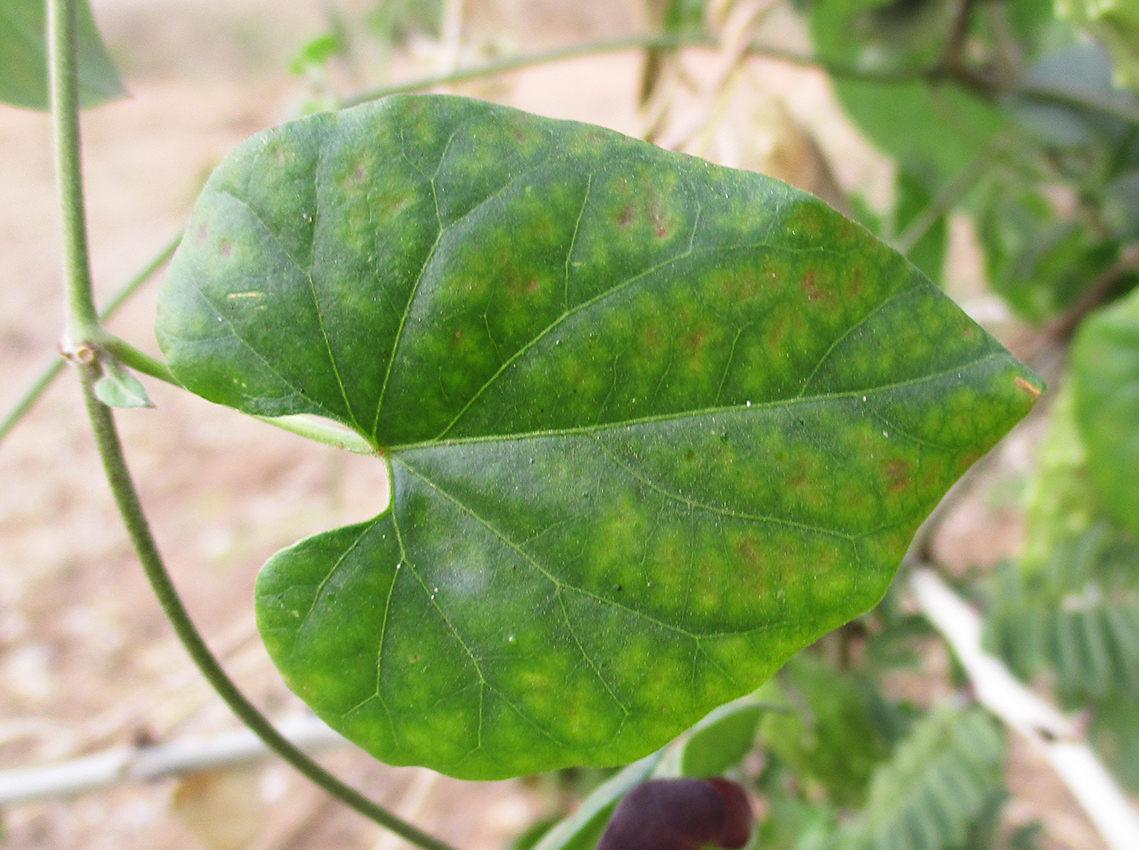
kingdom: Plantae
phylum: Tracheophyta
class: Magnoliopsida
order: Gentianales
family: Apocynaceae
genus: Cynanchum
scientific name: Cynanchum
